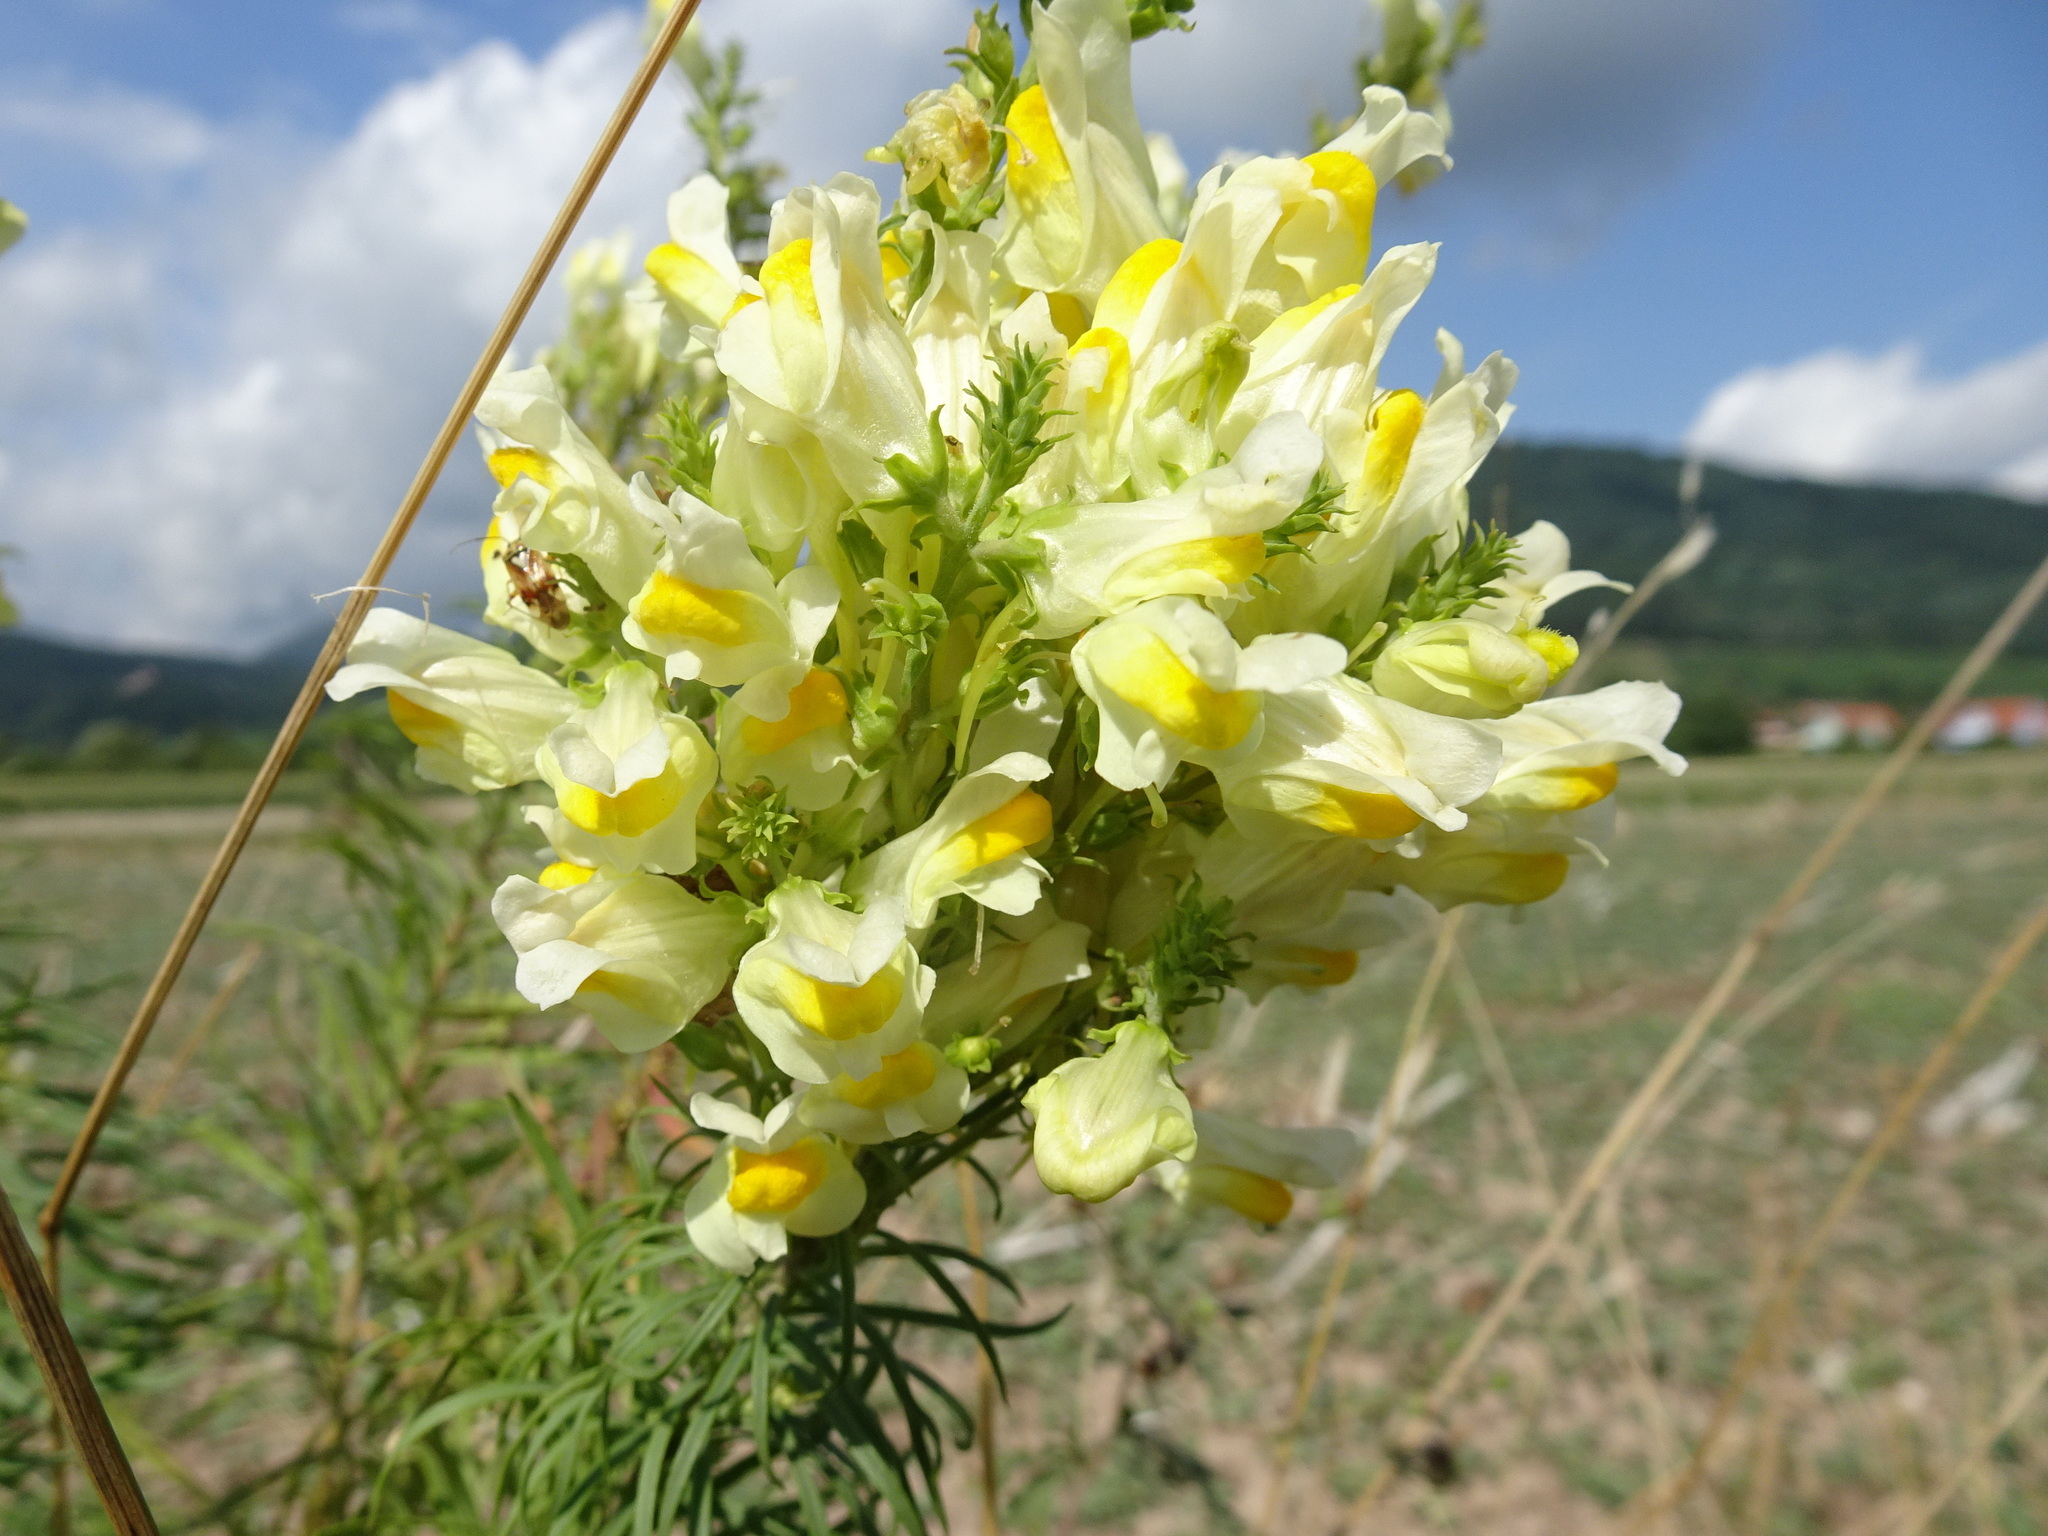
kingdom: Plantae
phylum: Tracheophyta
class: Magnoliopsida
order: Lamiales
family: Plantaginaceae
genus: Linaria
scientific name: Linaria vulgaris
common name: Butter and eggs
